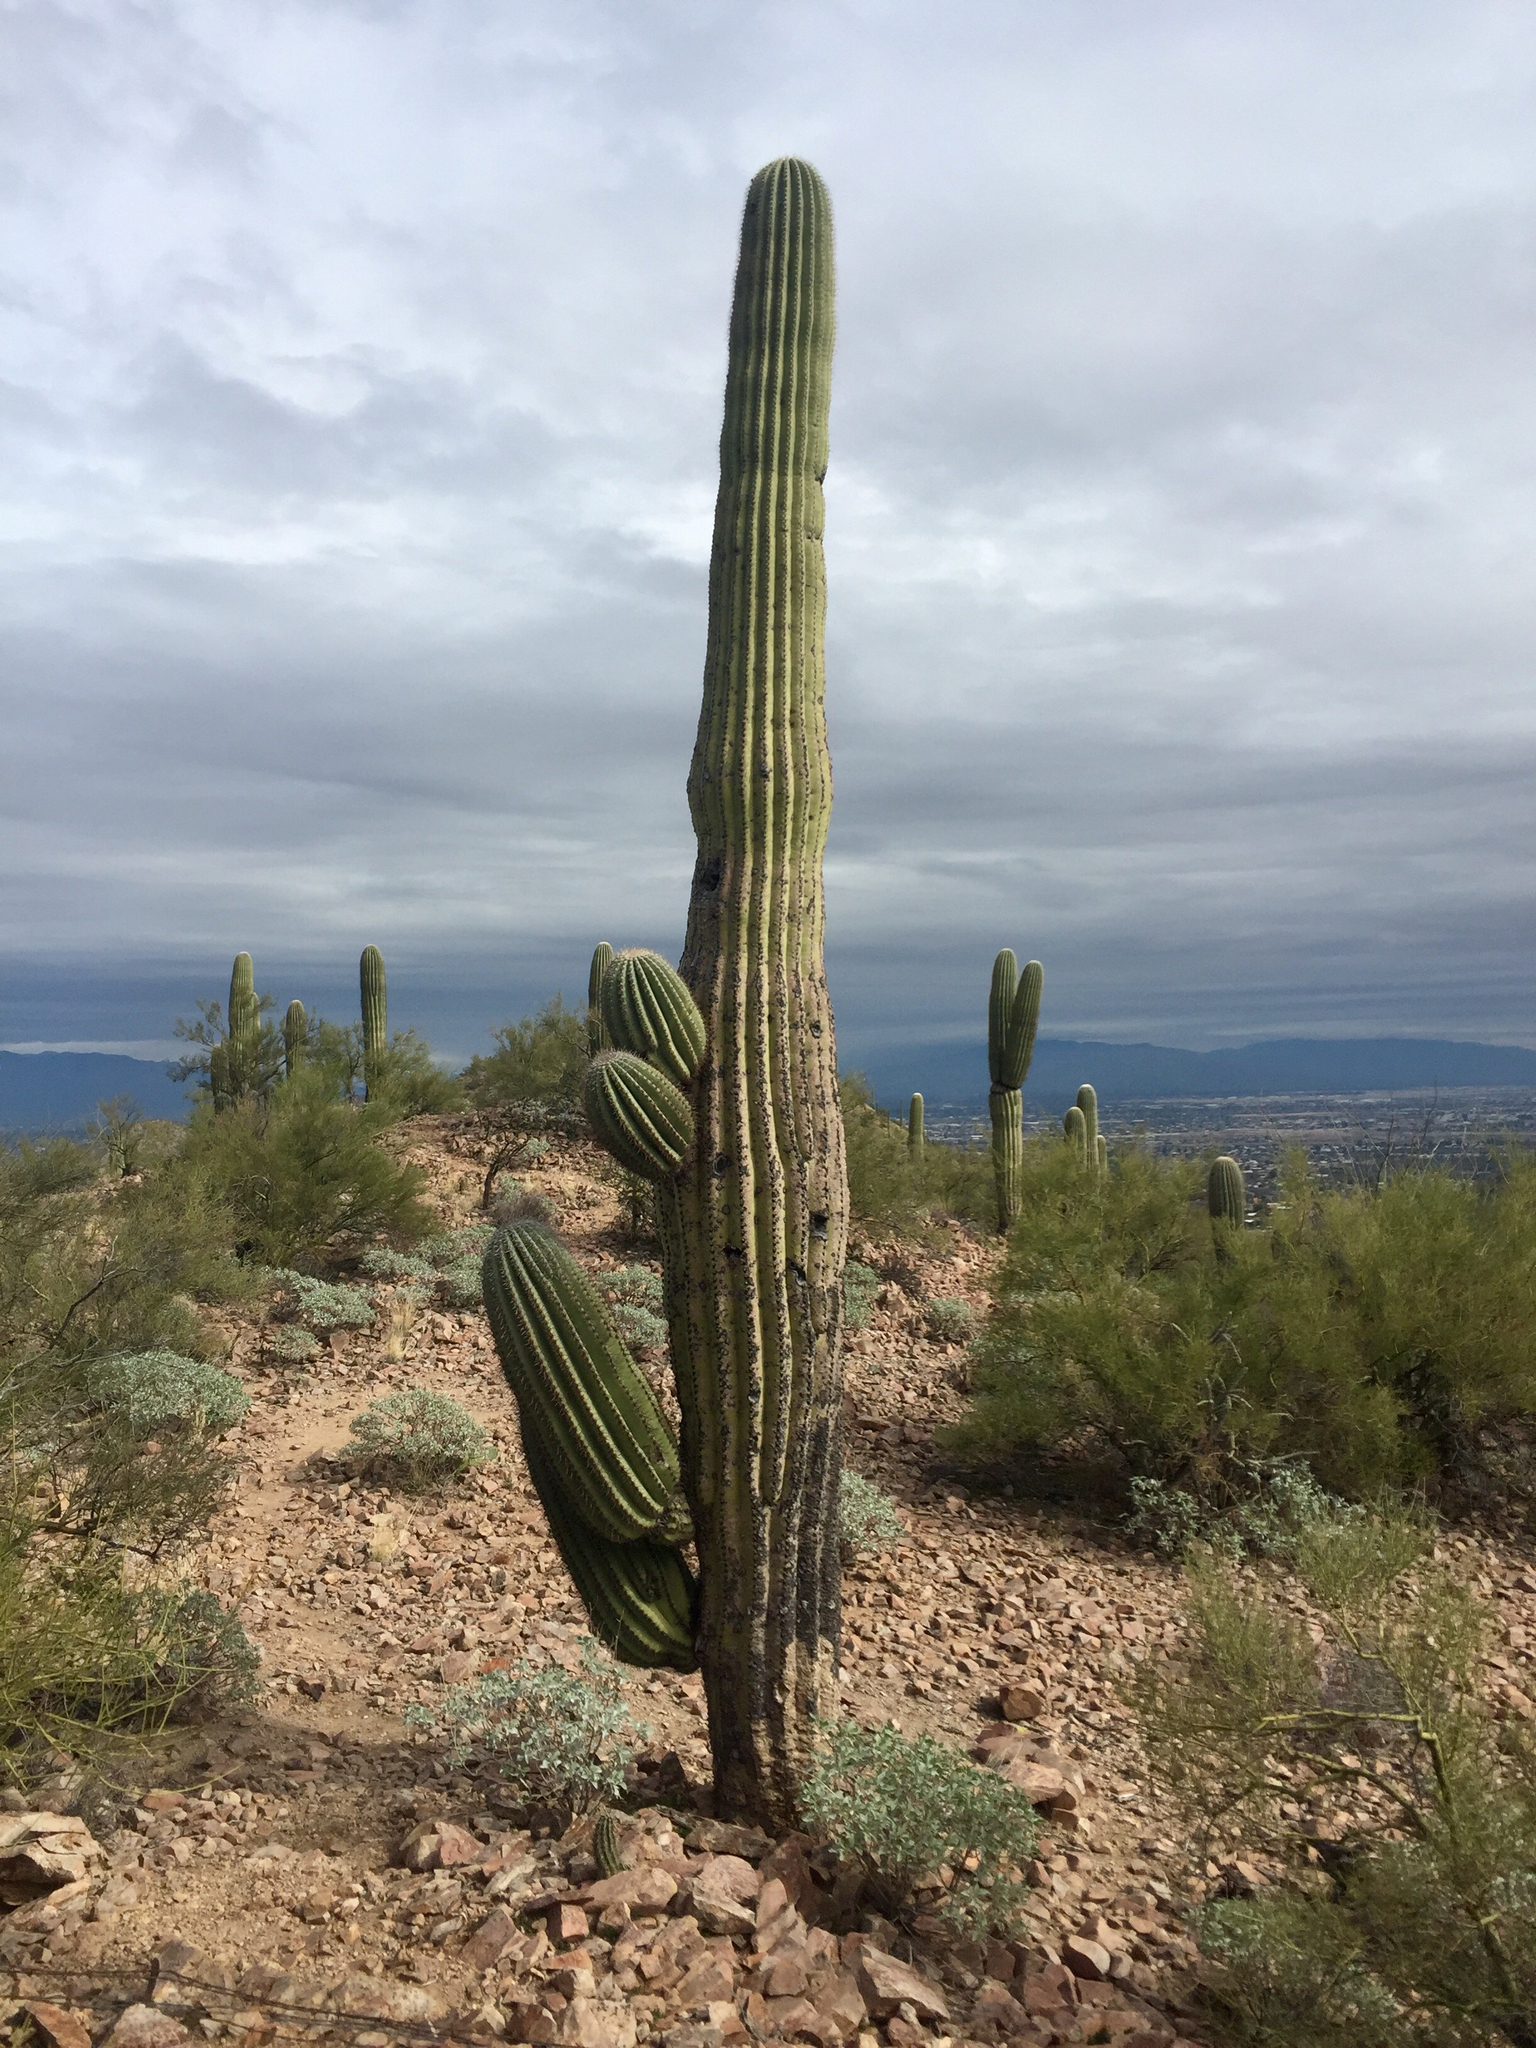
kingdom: Plantae
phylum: Tracheophyta
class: Magnoliopsida
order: Caryophyllales
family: Cactaceae
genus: Carnegiea
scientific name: Carnegiea gigantea
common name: Saguaro
